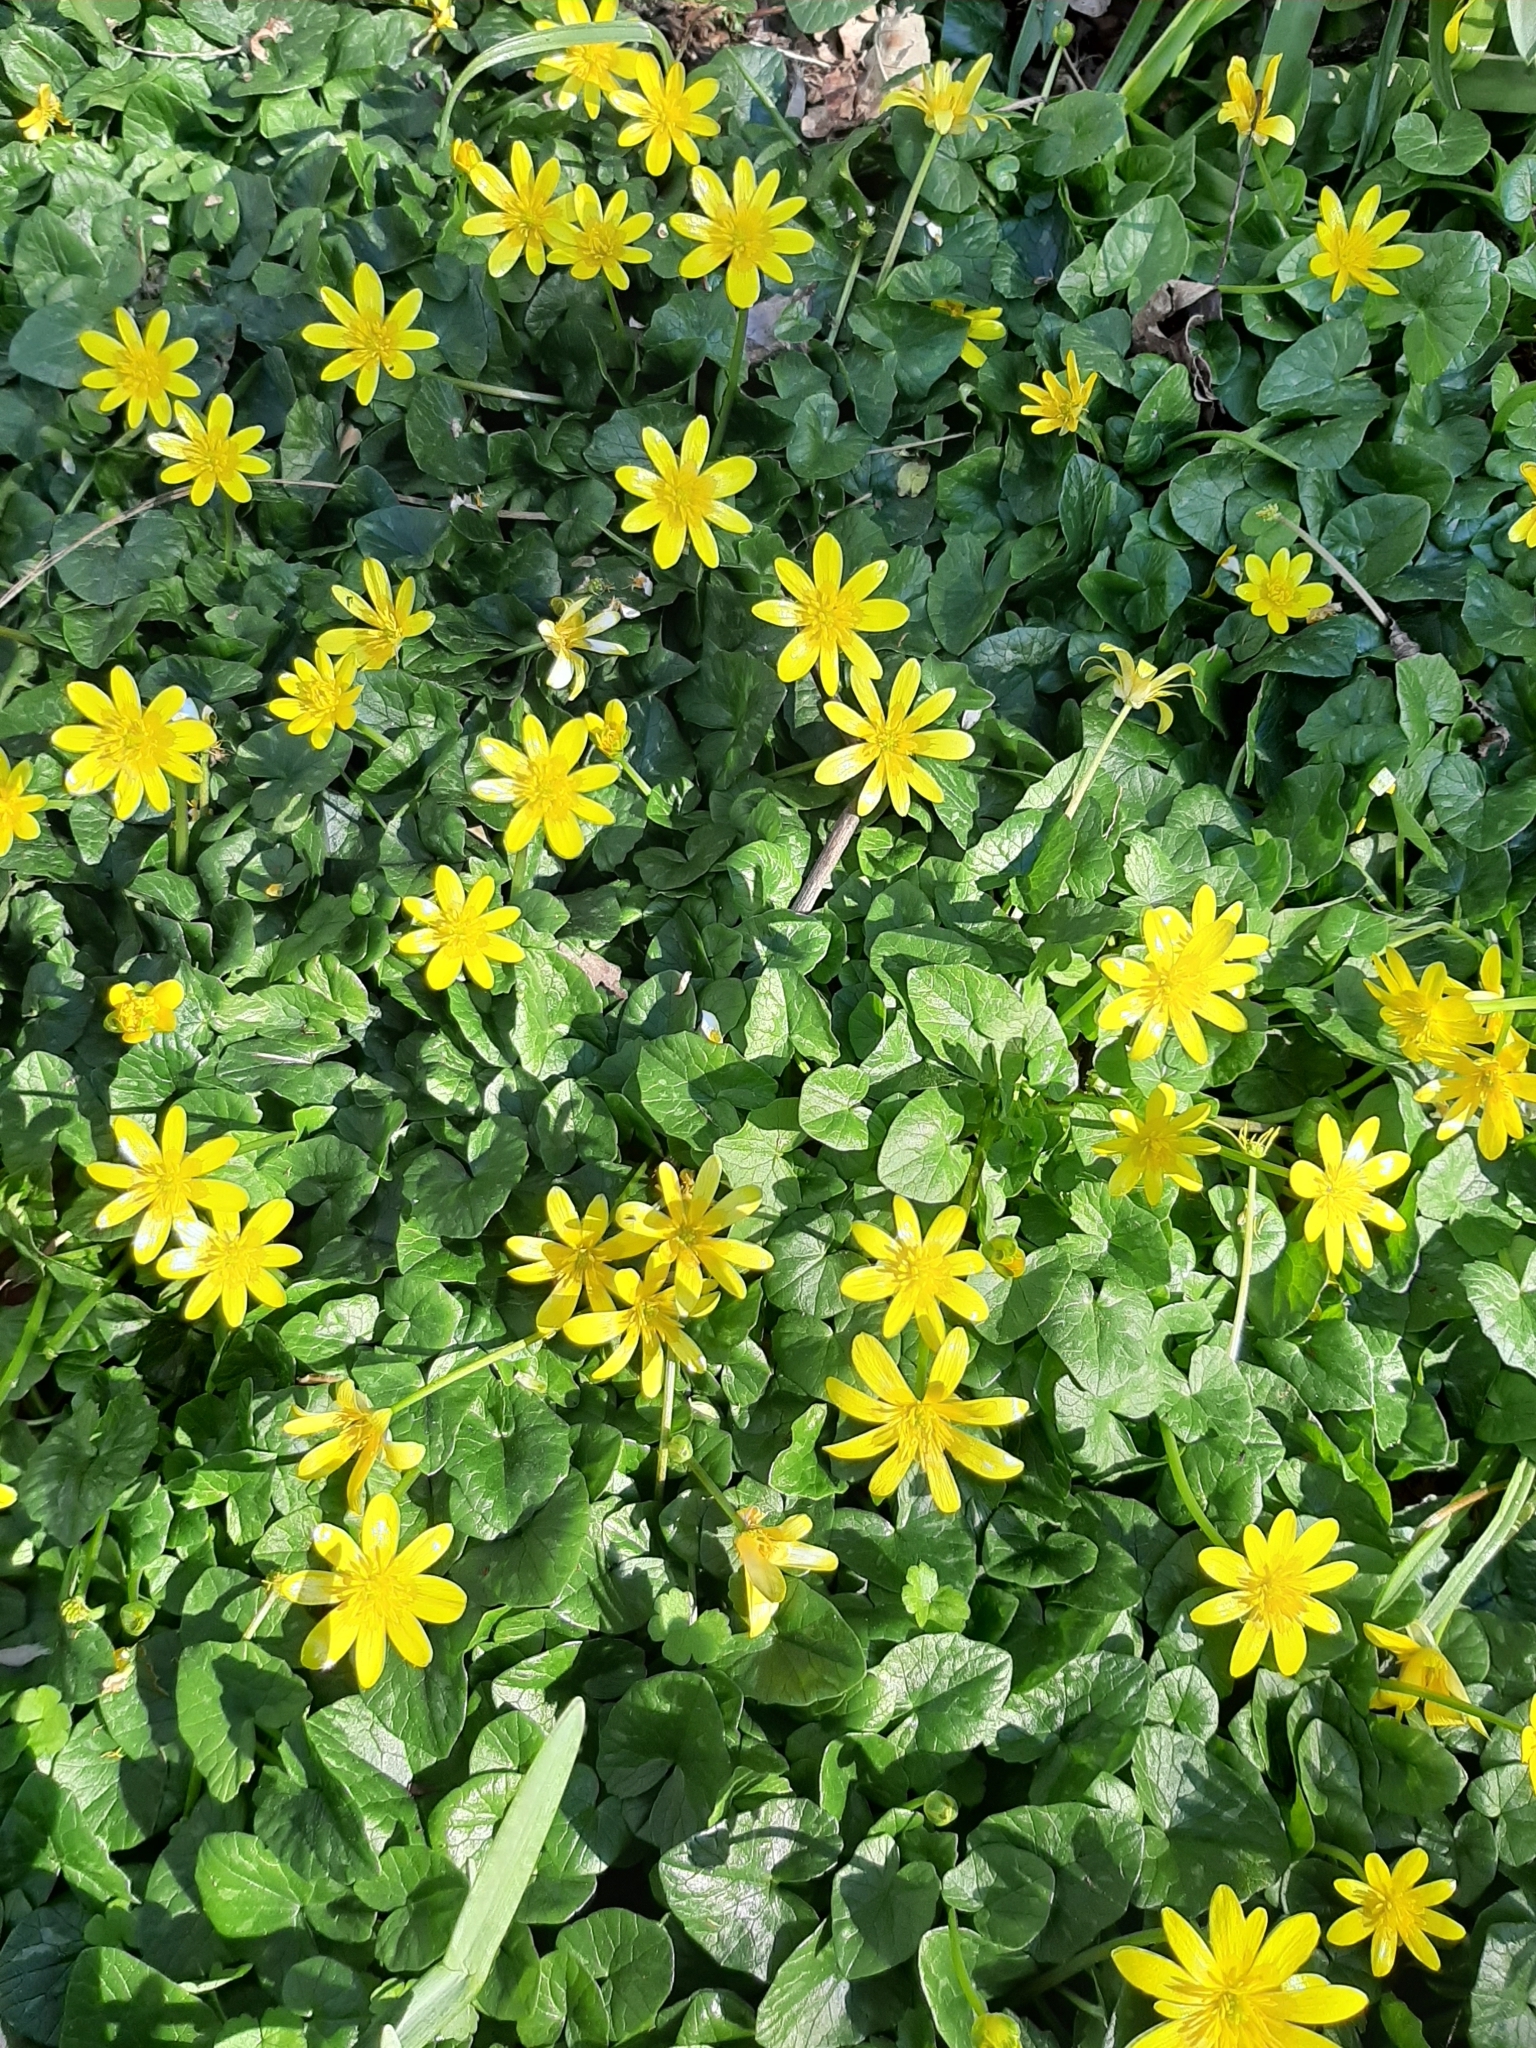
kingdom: Plantae
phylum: Tracheophyta
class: Magnoliopsida
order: Ranunculales
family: Ranunculaceae
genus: Ficaria
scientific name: Ficaria verna
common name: Lesser celandine
